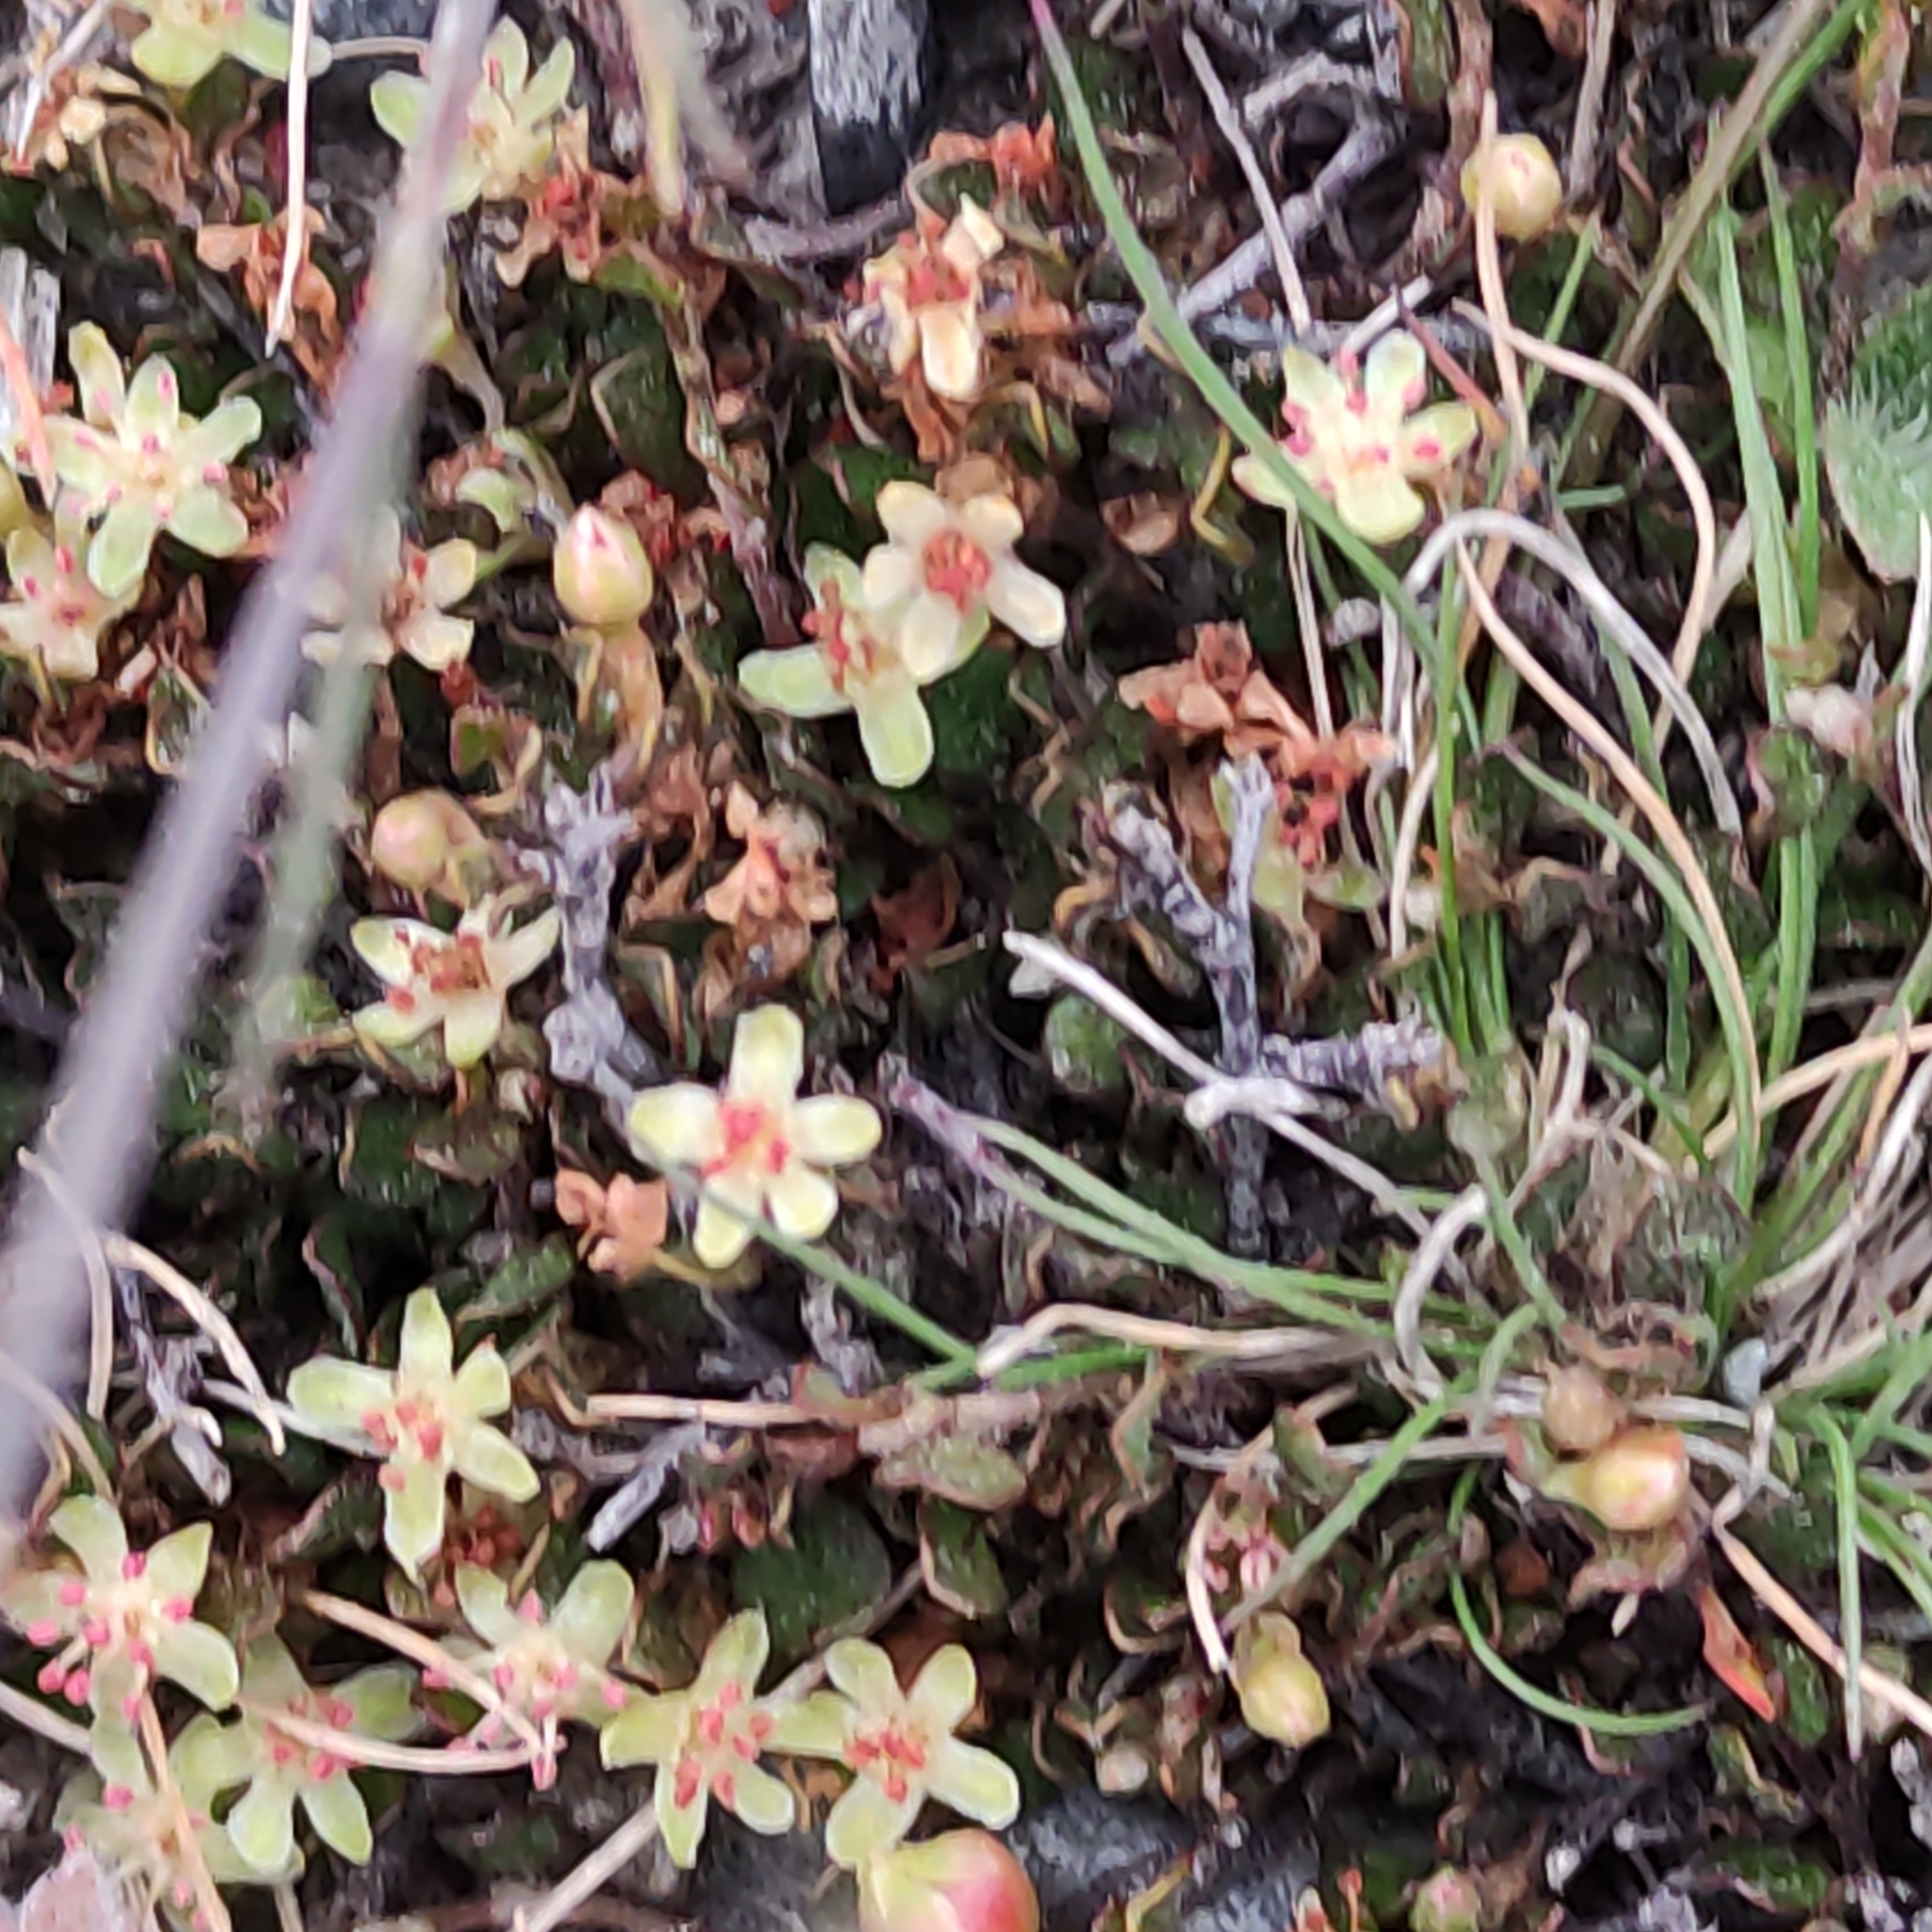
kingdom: Plantae
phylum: Tracheophyta
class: Magnoliopsida
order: Caryophyllales
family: Polygonaceae
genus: Muehlenbeckia
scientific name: Muehlenbeckia axillaris
